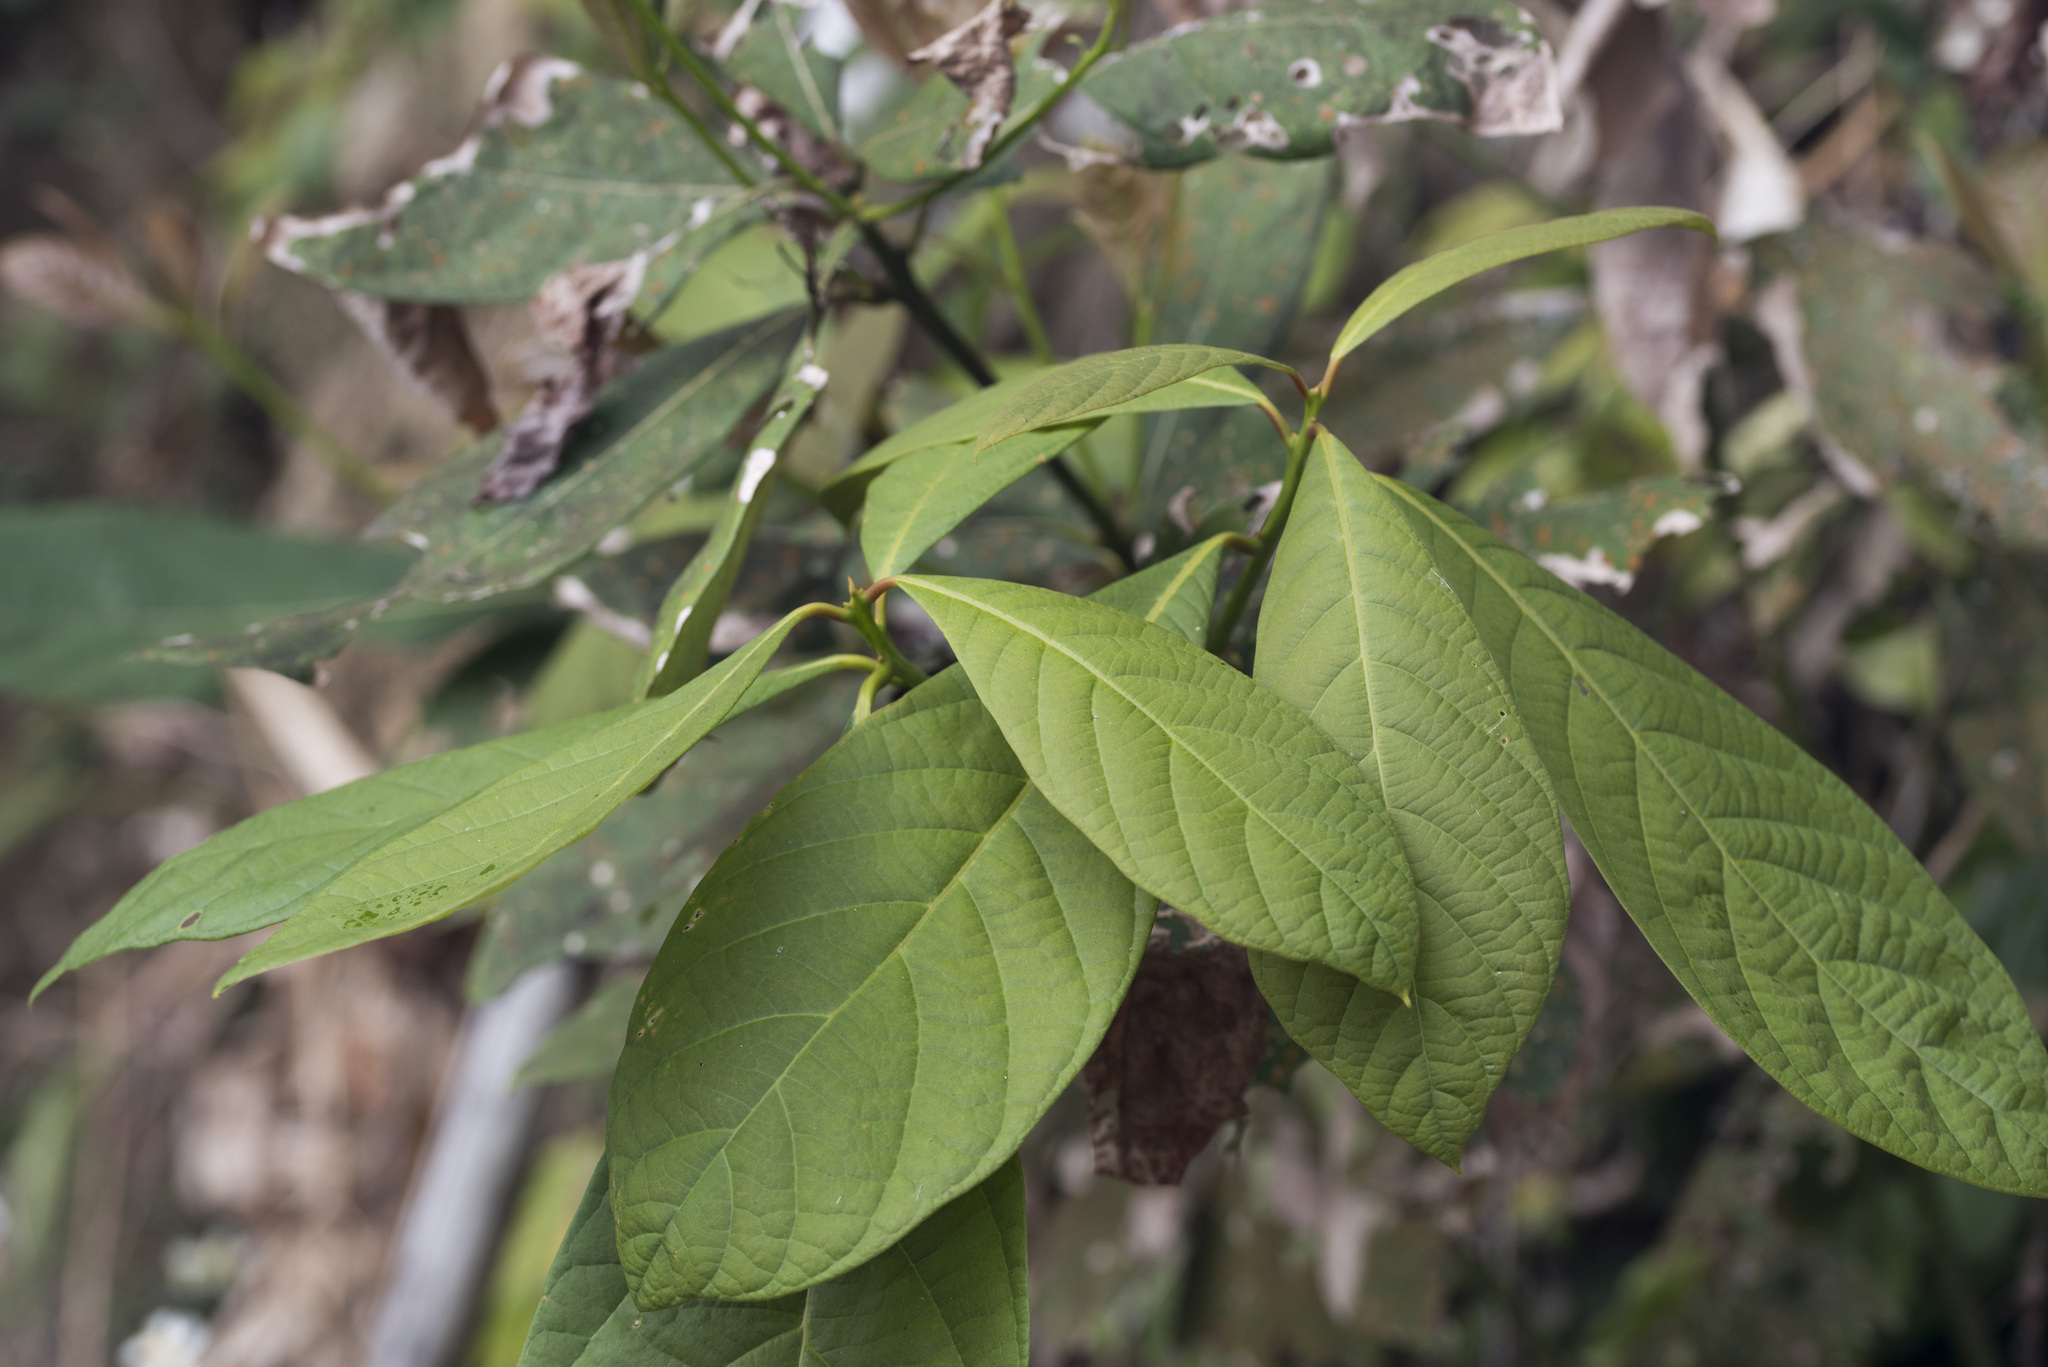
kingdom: Plantae
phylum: Tracheophyta
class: Magnoliopsida
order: Laurales
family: Lauraceae
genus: Phoebe
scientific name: Phoebe formosana
